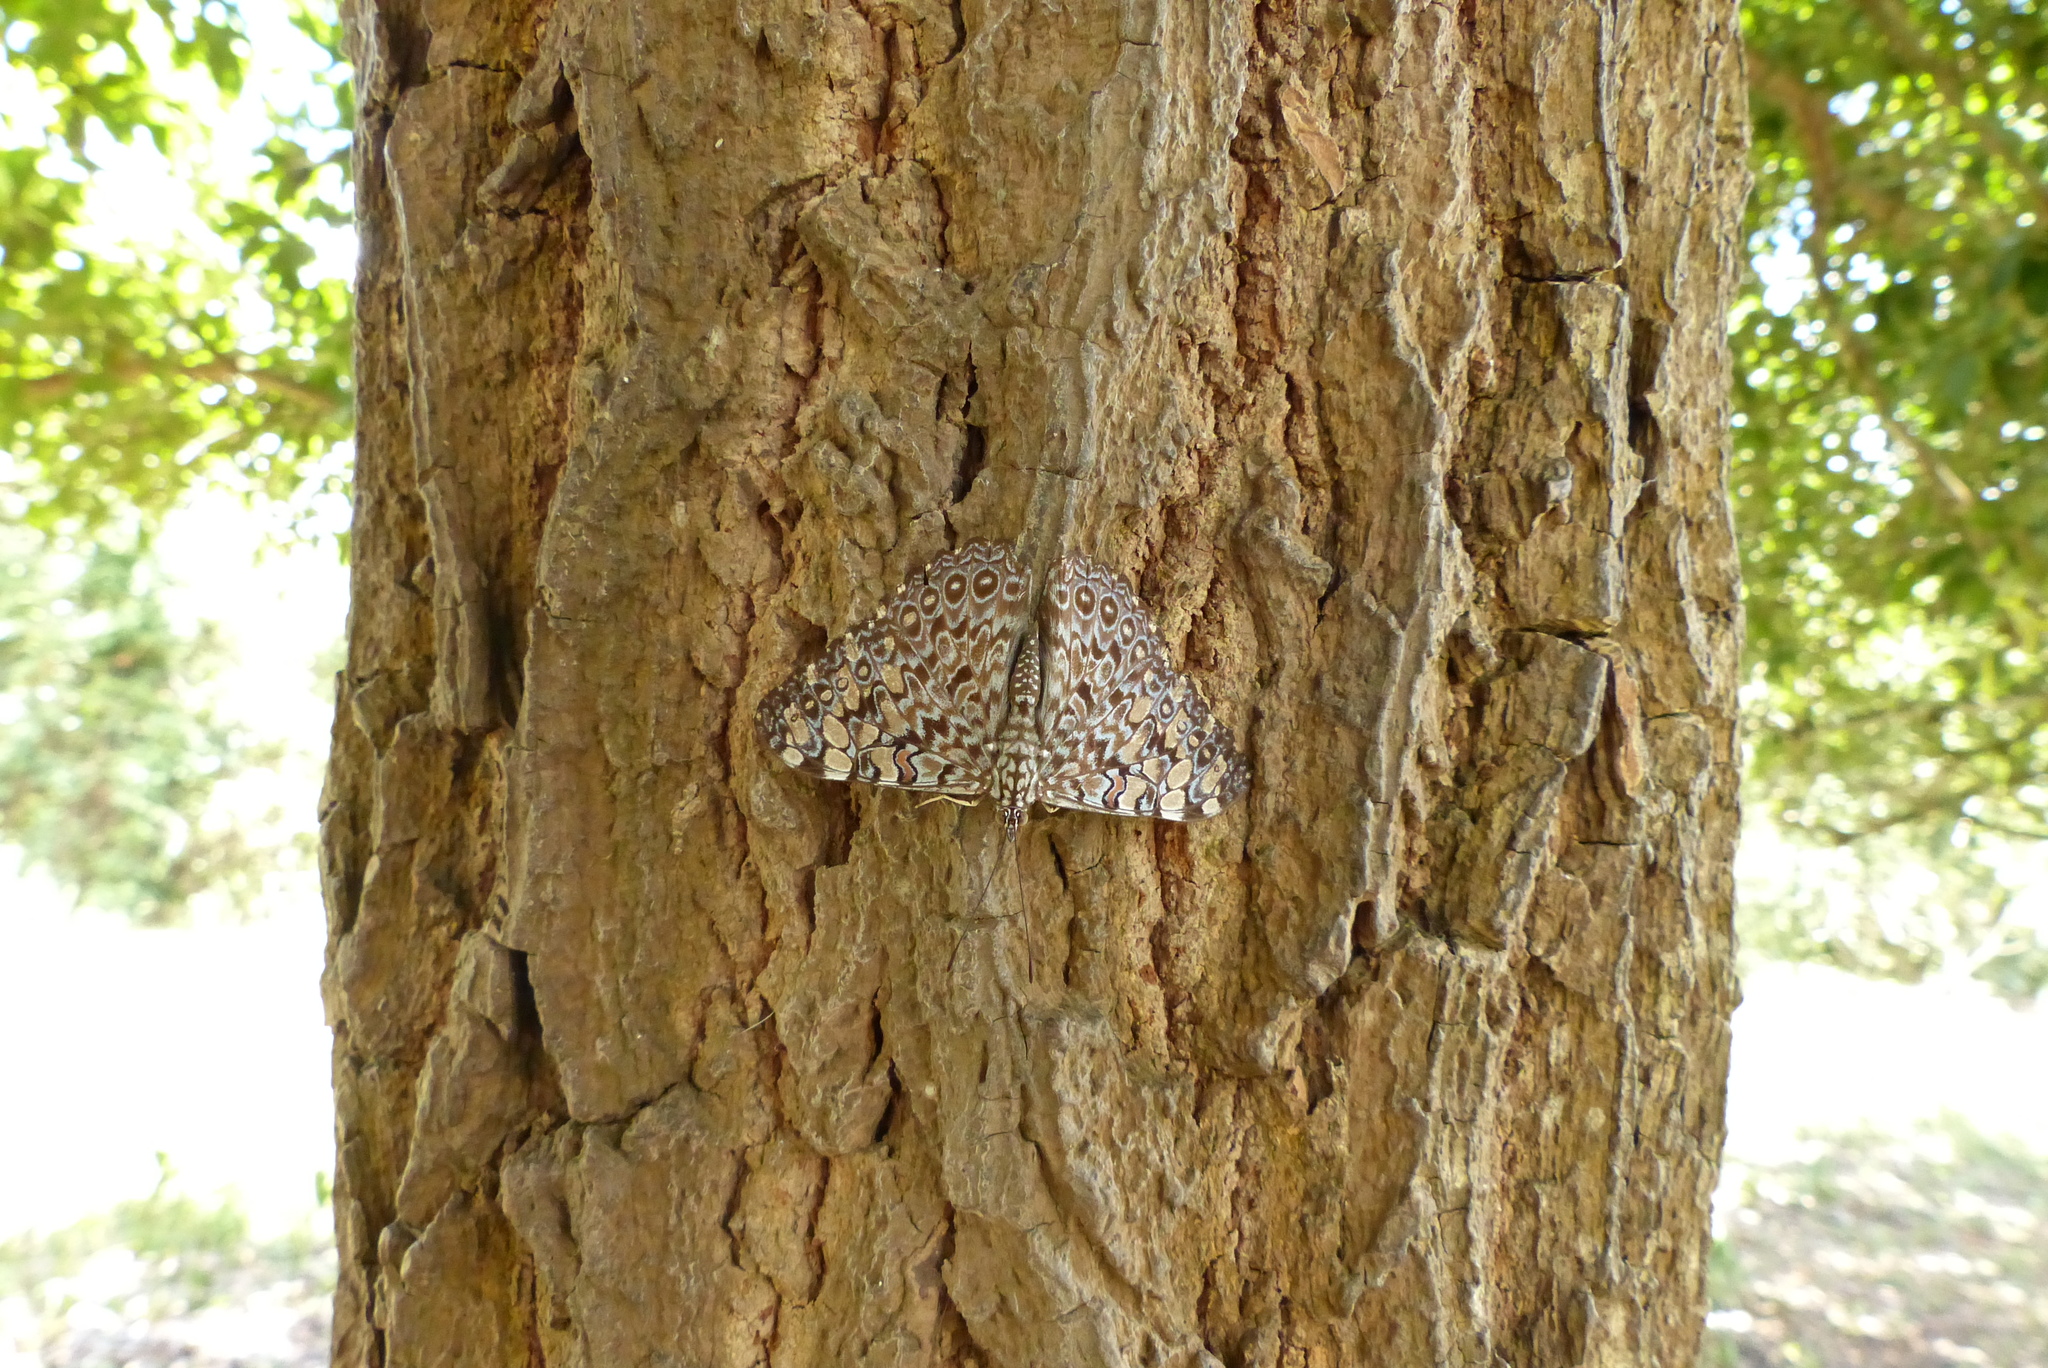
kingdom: Animalia
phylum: Arthropoda
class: Insecta
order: Lepidoptera
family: Nymphalidae
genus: Hamadryas
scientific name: Hamadryas feronia
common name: Variable cracker
